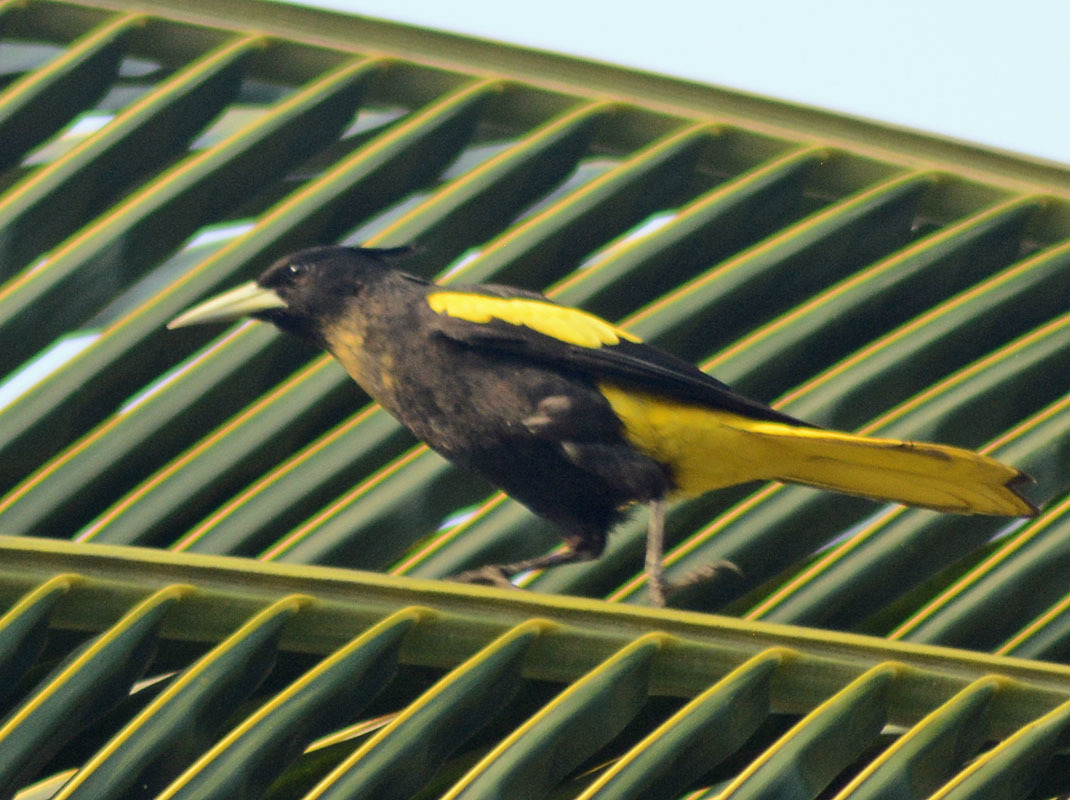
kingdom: Animalia
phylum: Chordata
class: Aves
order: Passeriformes
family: Icteridae
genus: Cacicus
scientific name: Cacicus melanicterus
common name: Yellow-winged cacique
